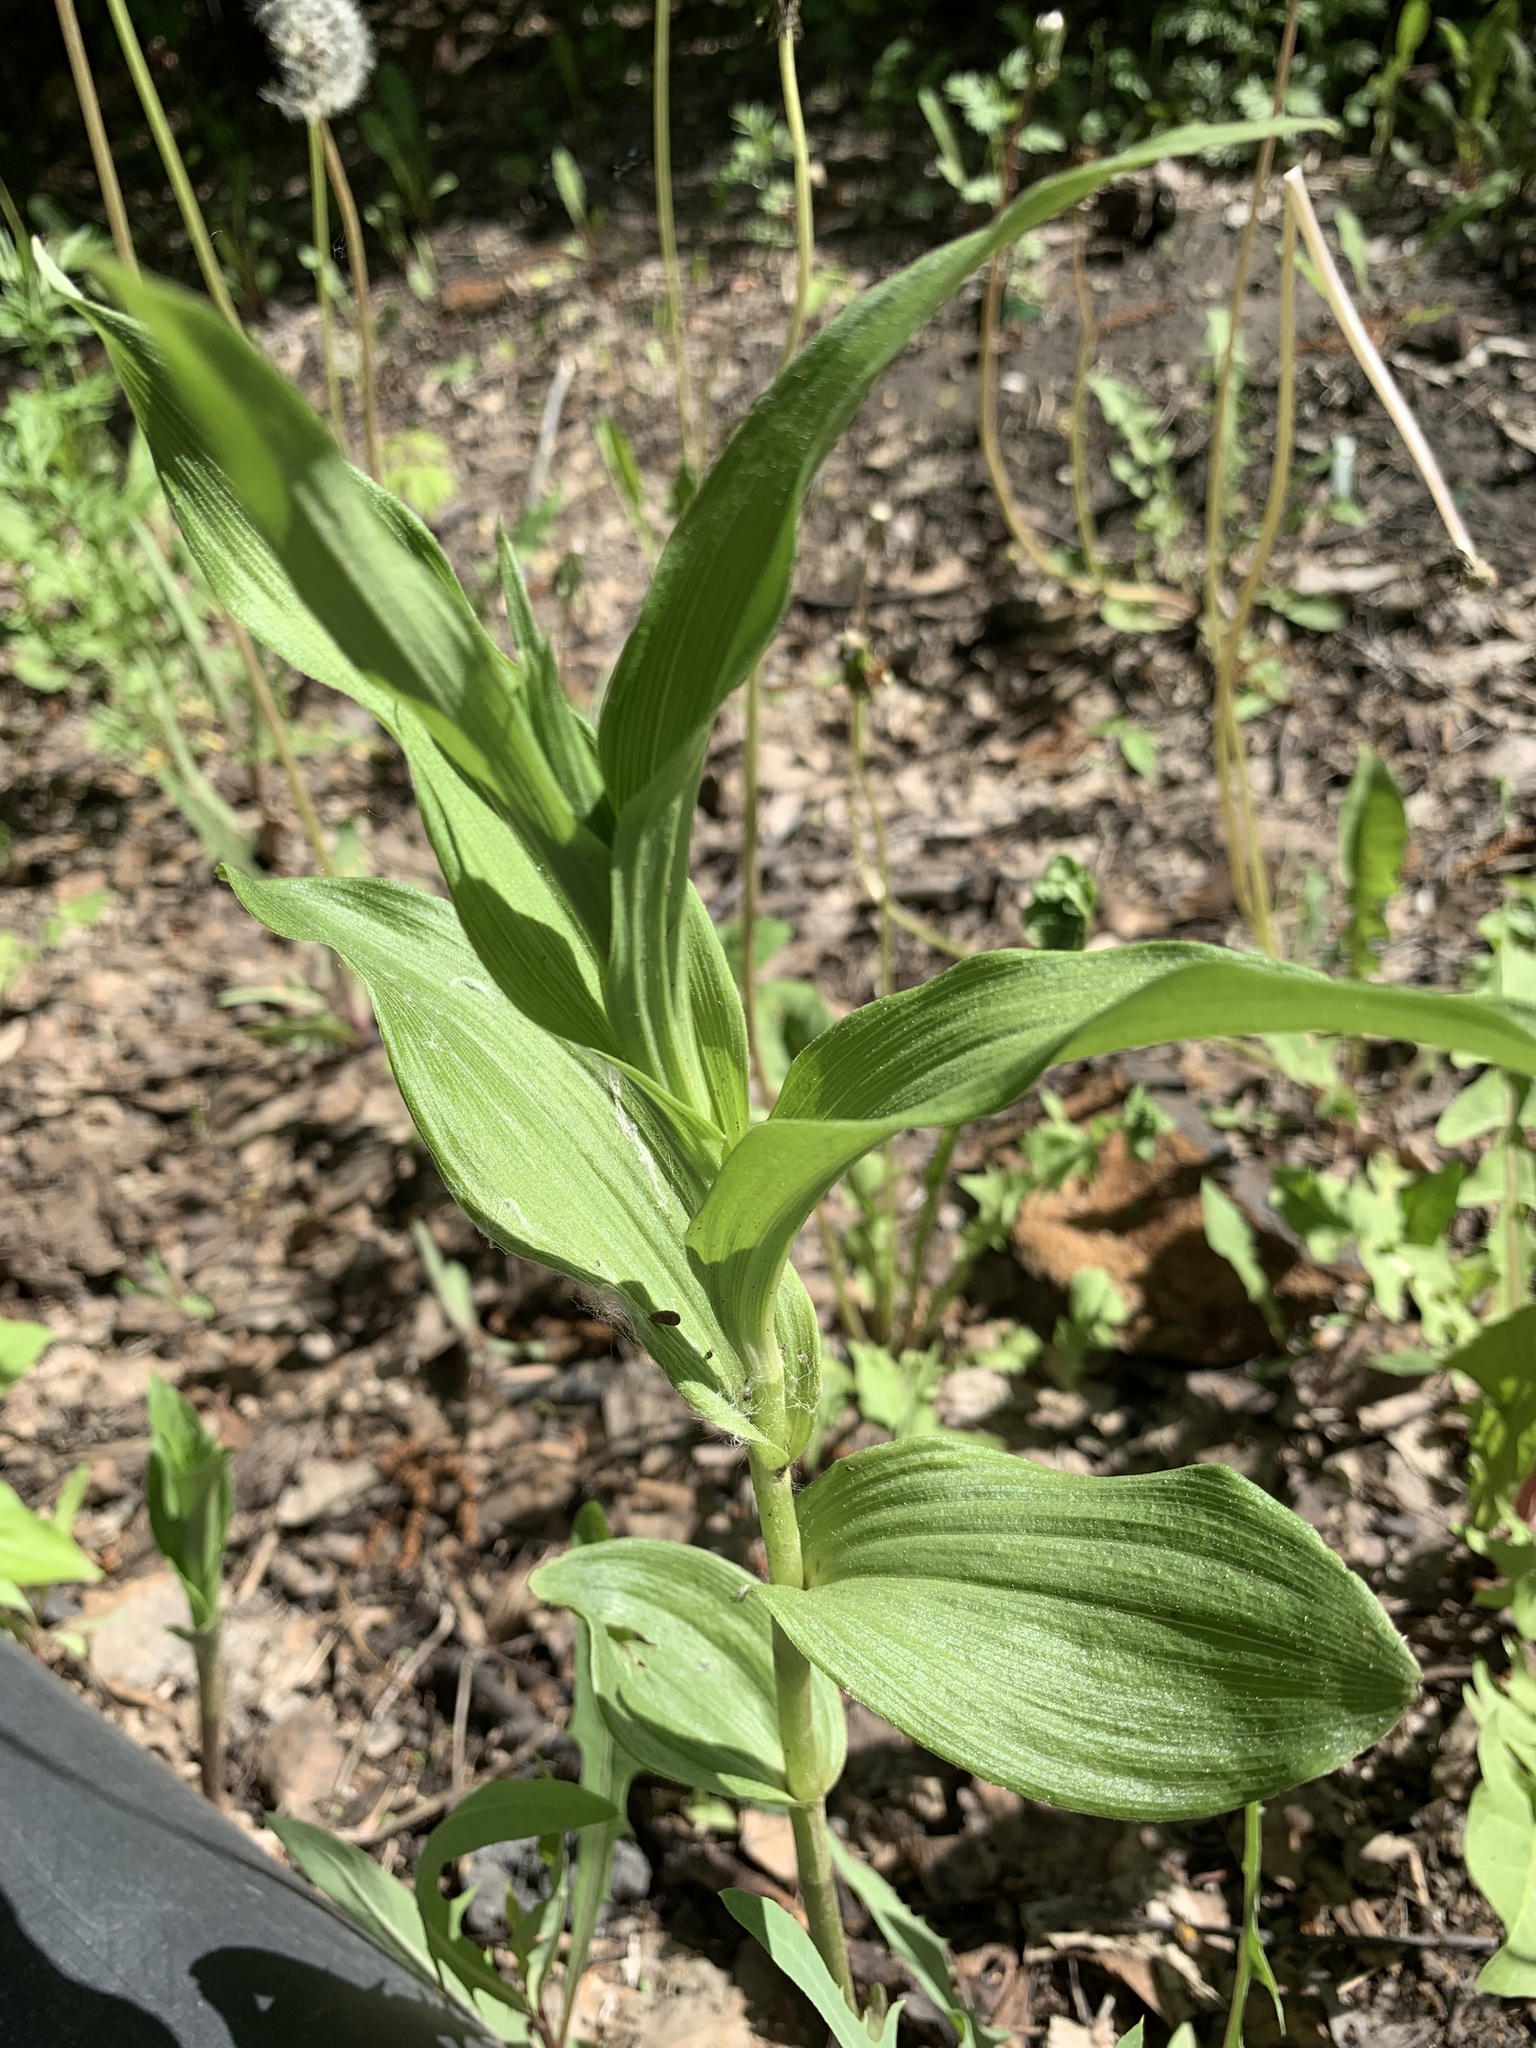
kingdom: Plantae
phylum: Tracheophyta
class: Liliopsida
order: Asparagales
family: Orchidaceae
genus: Epipactis
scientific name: Epipactis helleborine
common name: Broad-leaved helleborine
